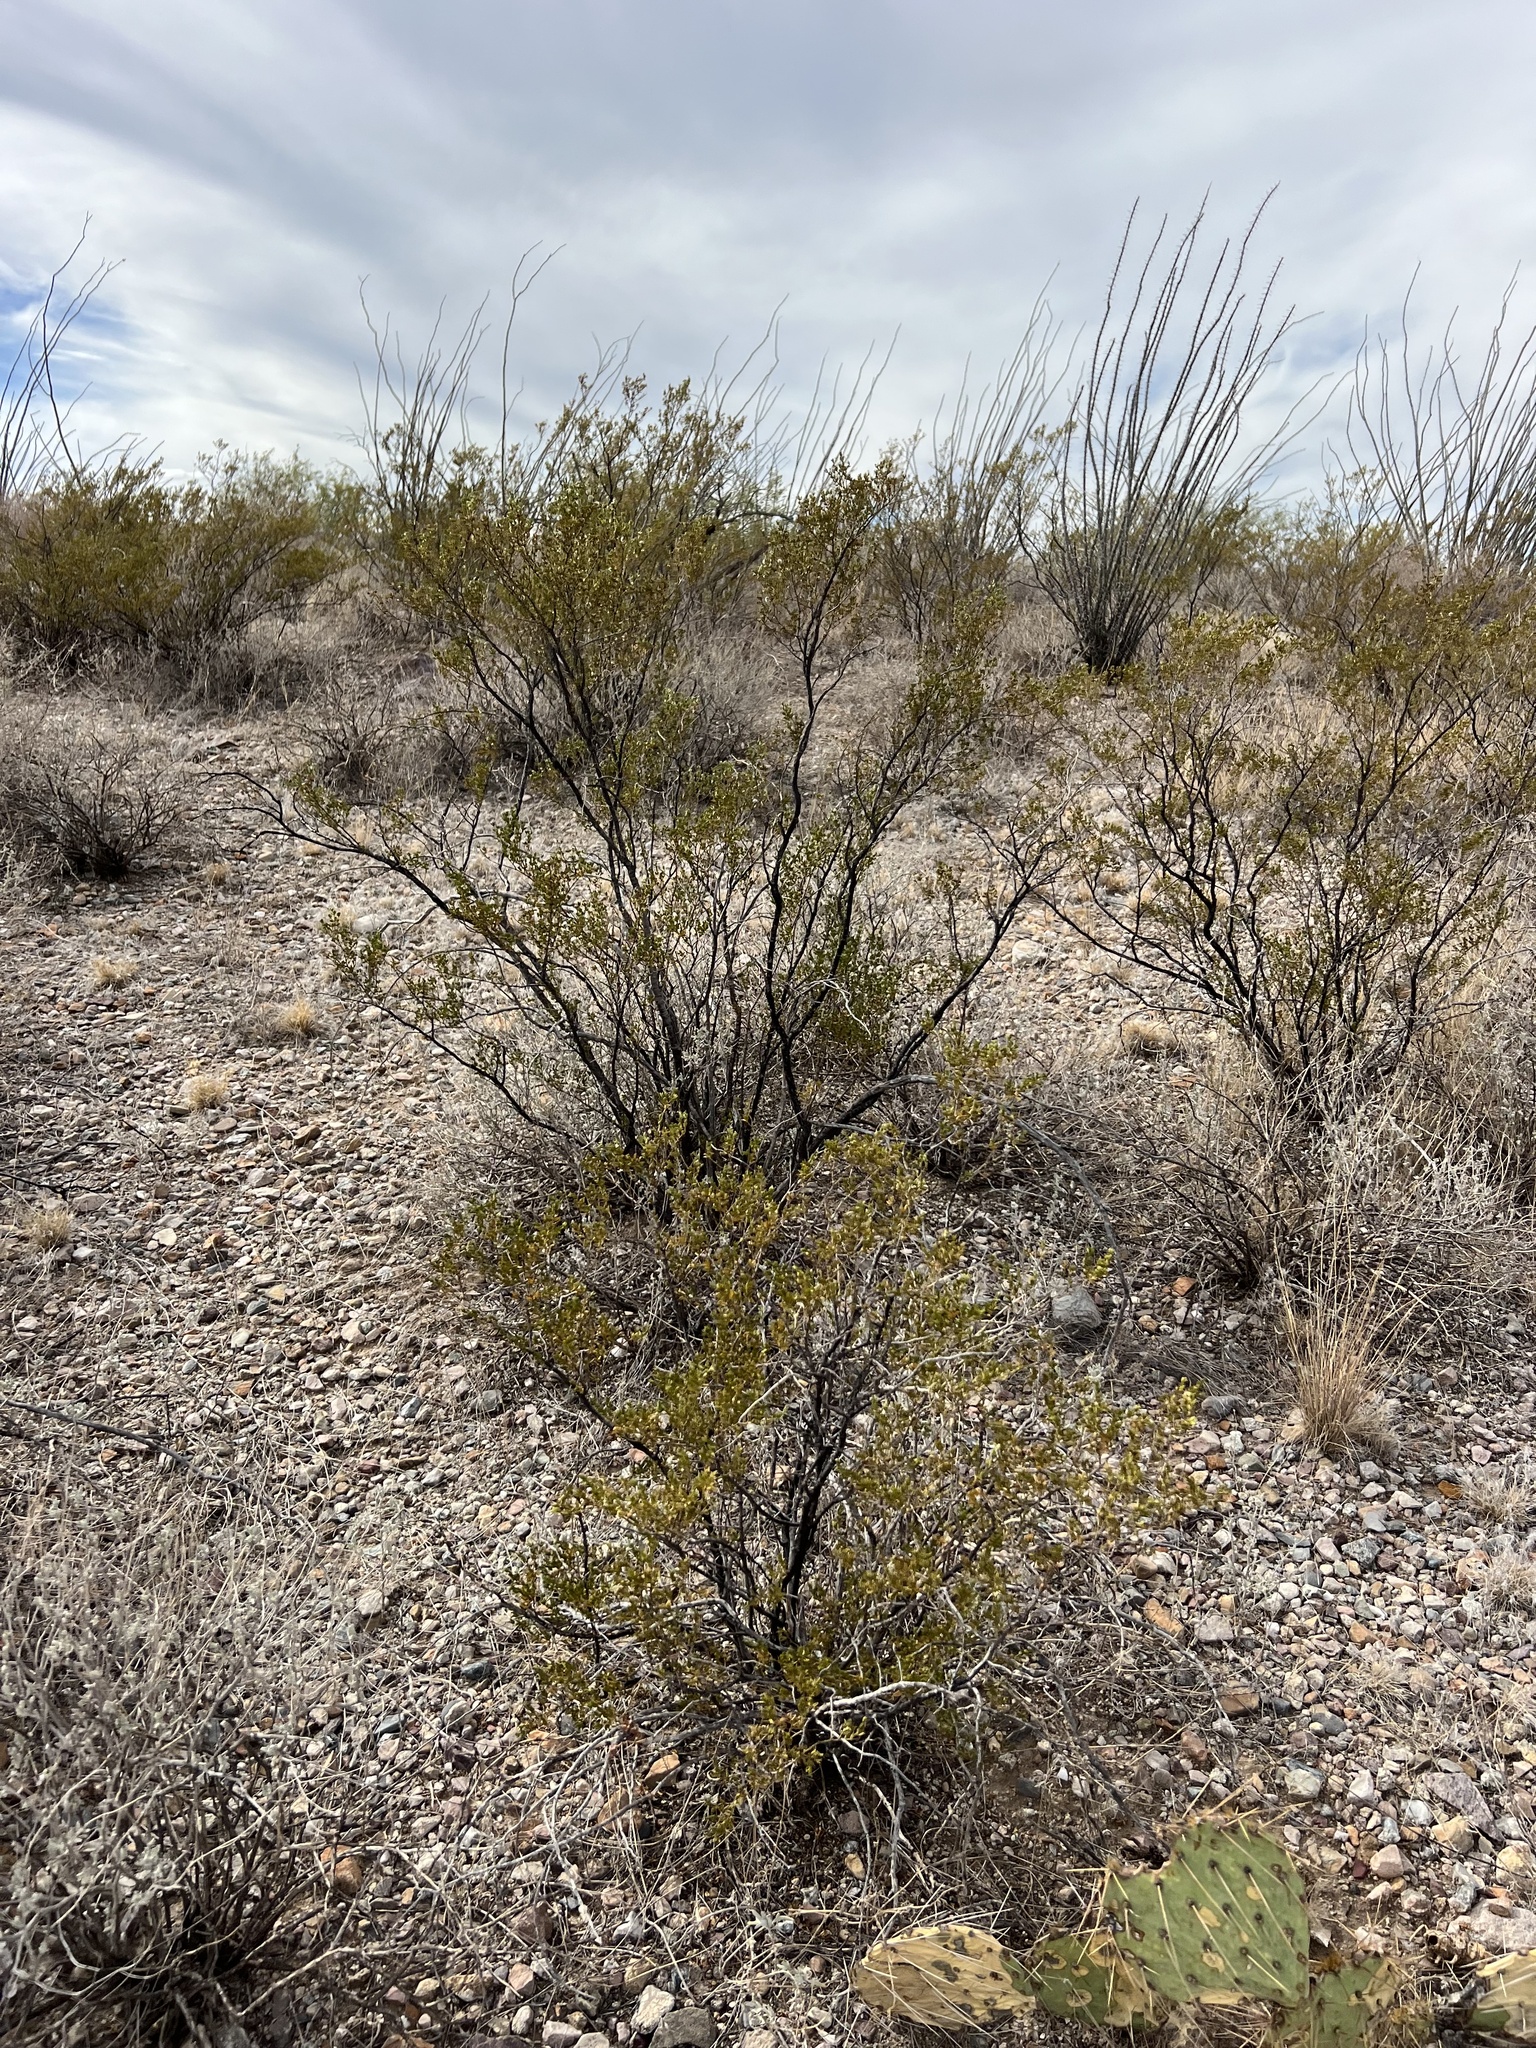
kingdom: Plantae
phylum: Tracheophyta
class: Magnoliopsida
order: Zygophyllales
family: Zygophyllaceae
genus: Larrea
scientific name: Larrea tridentata
